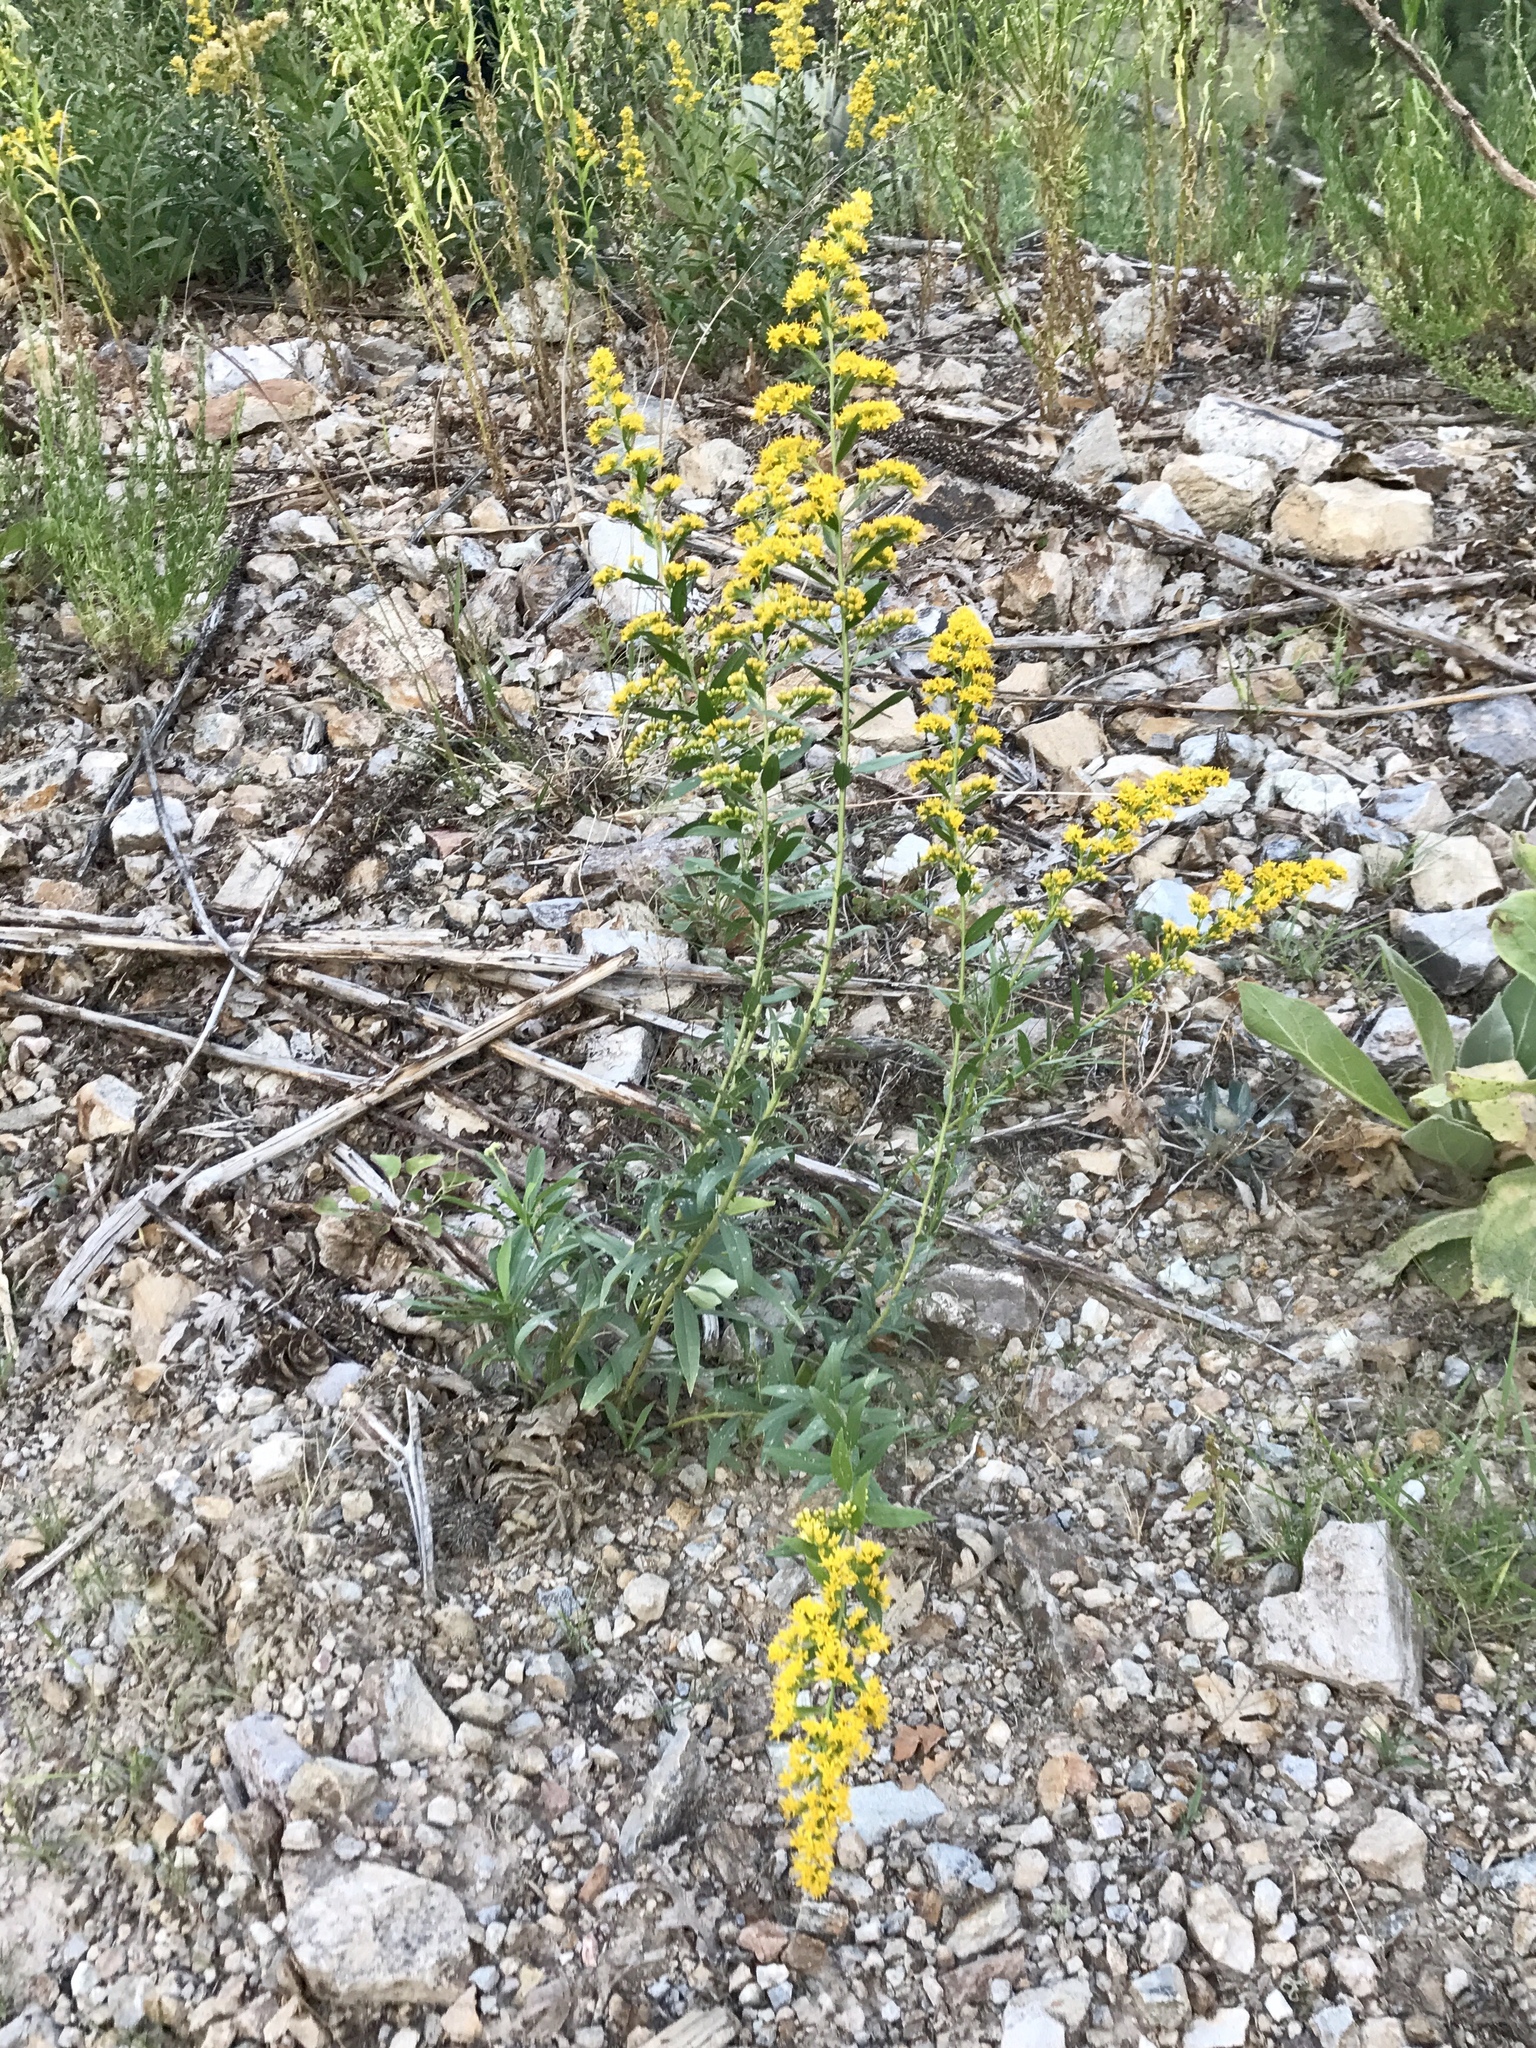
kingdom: Plantae
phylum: Tracheophyta
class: Magnoliopsida
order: Asterales
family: Asteraceae
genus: Solidago
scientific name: Solidago velutina
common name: Three-nerve goldenrod
